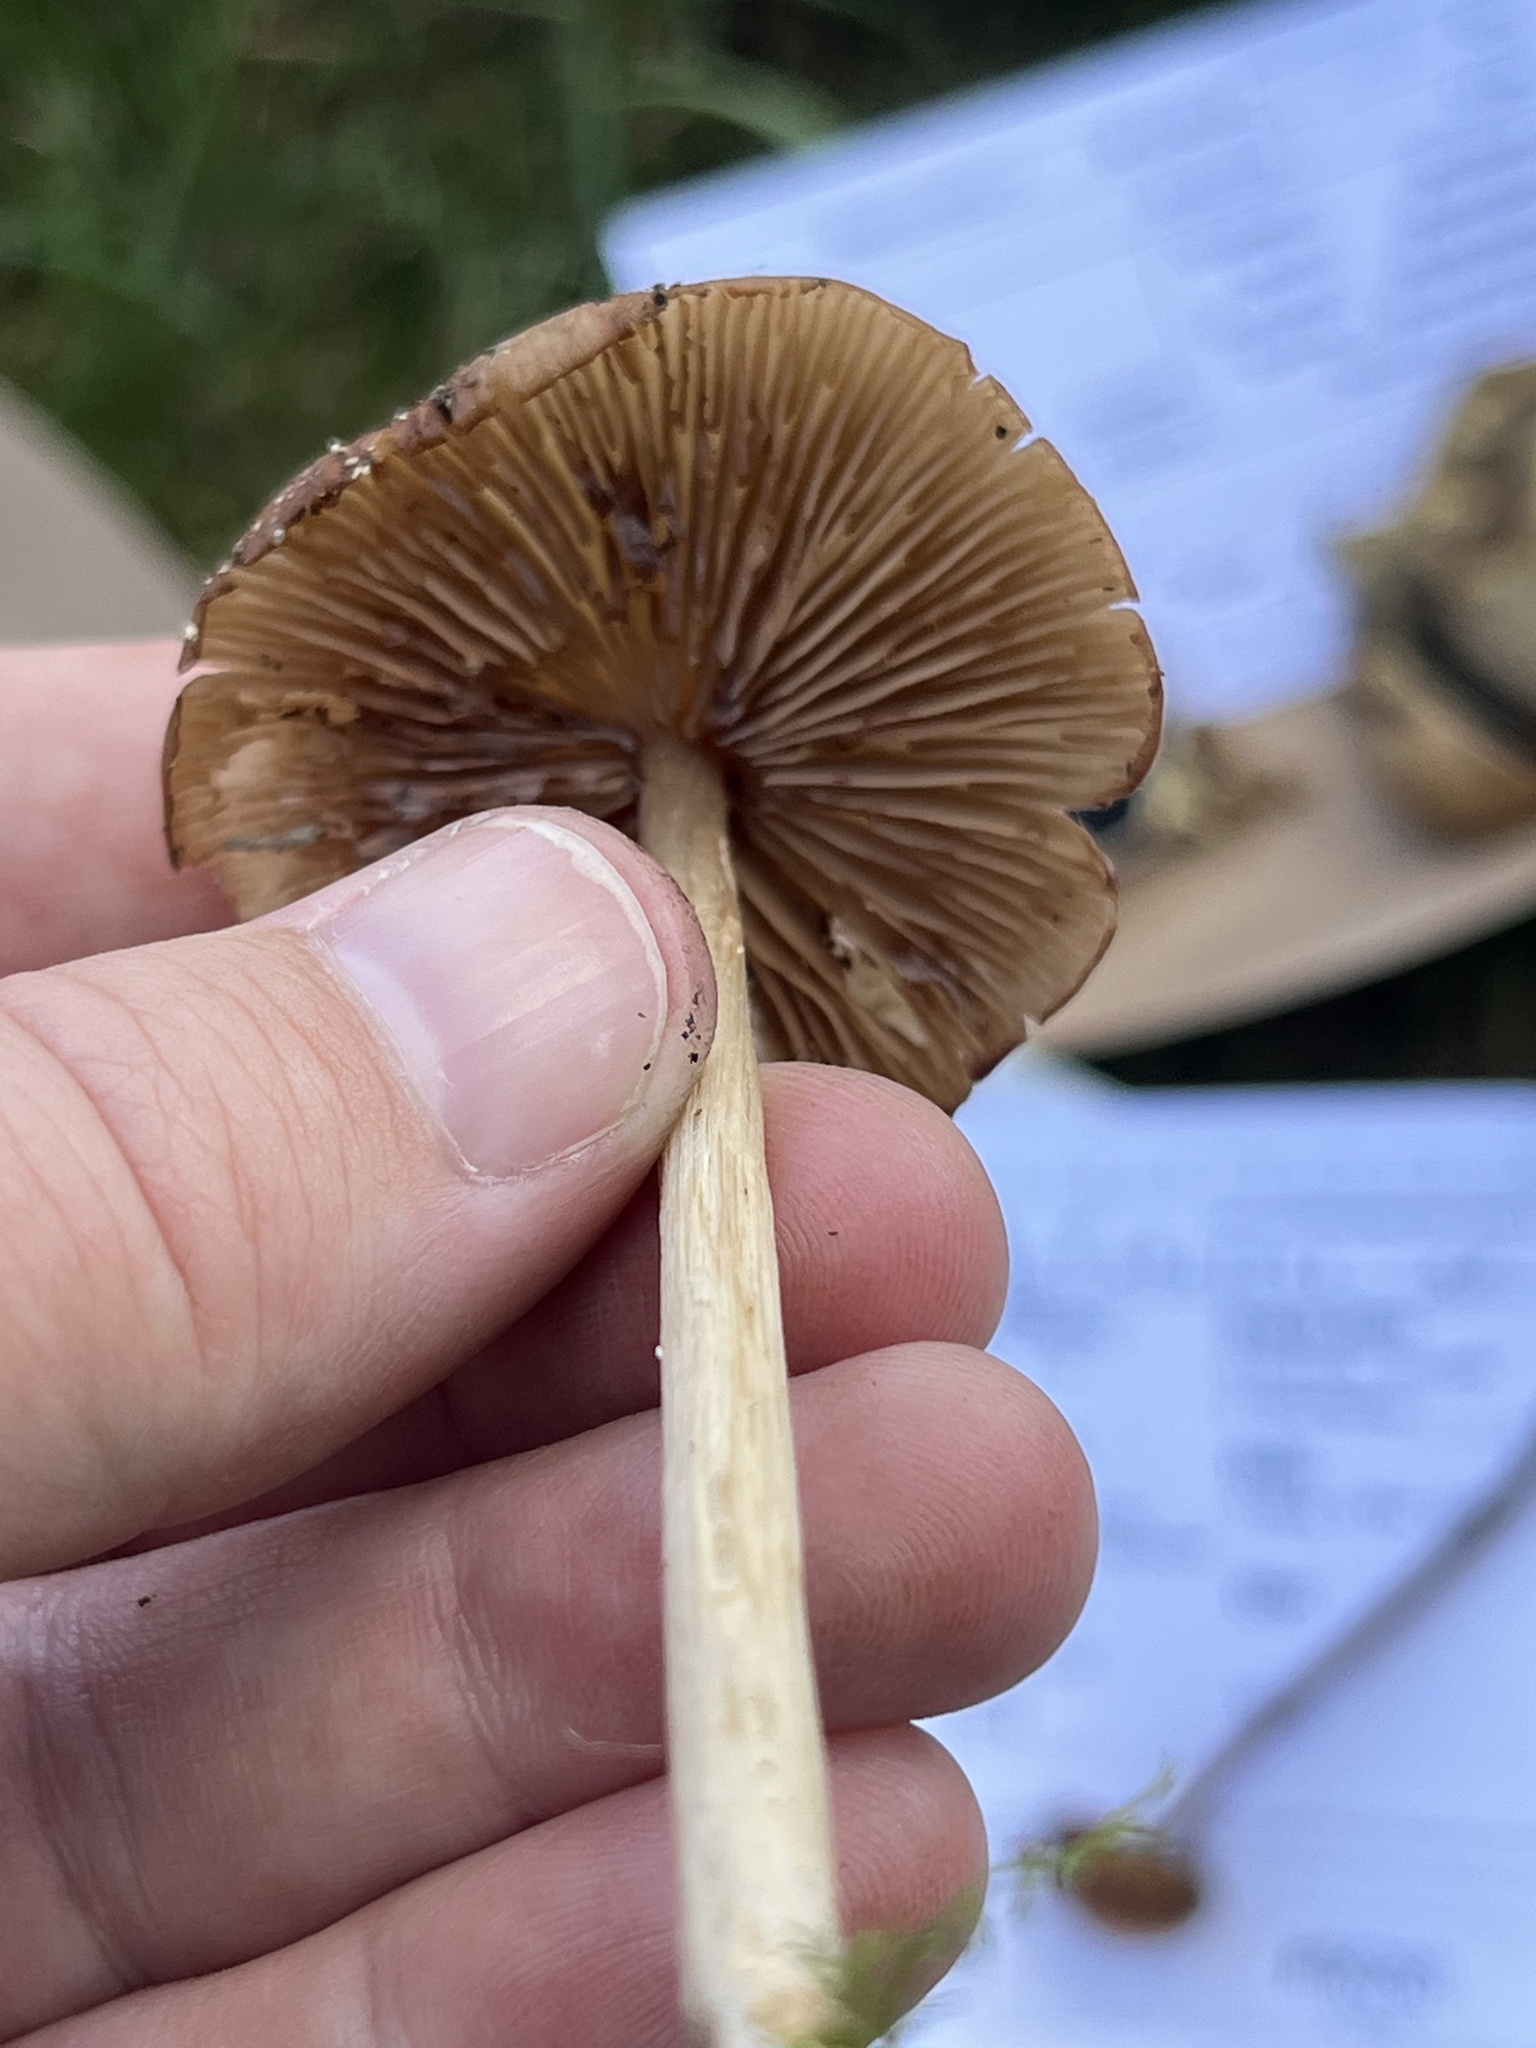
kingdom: Fungi
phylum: Basidiomycota
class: Agaricomycetes
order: Agaricales
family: Entolomataceae
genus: Entoloma
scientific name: Entoloma strictius
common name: Straight-stalked entoloma
